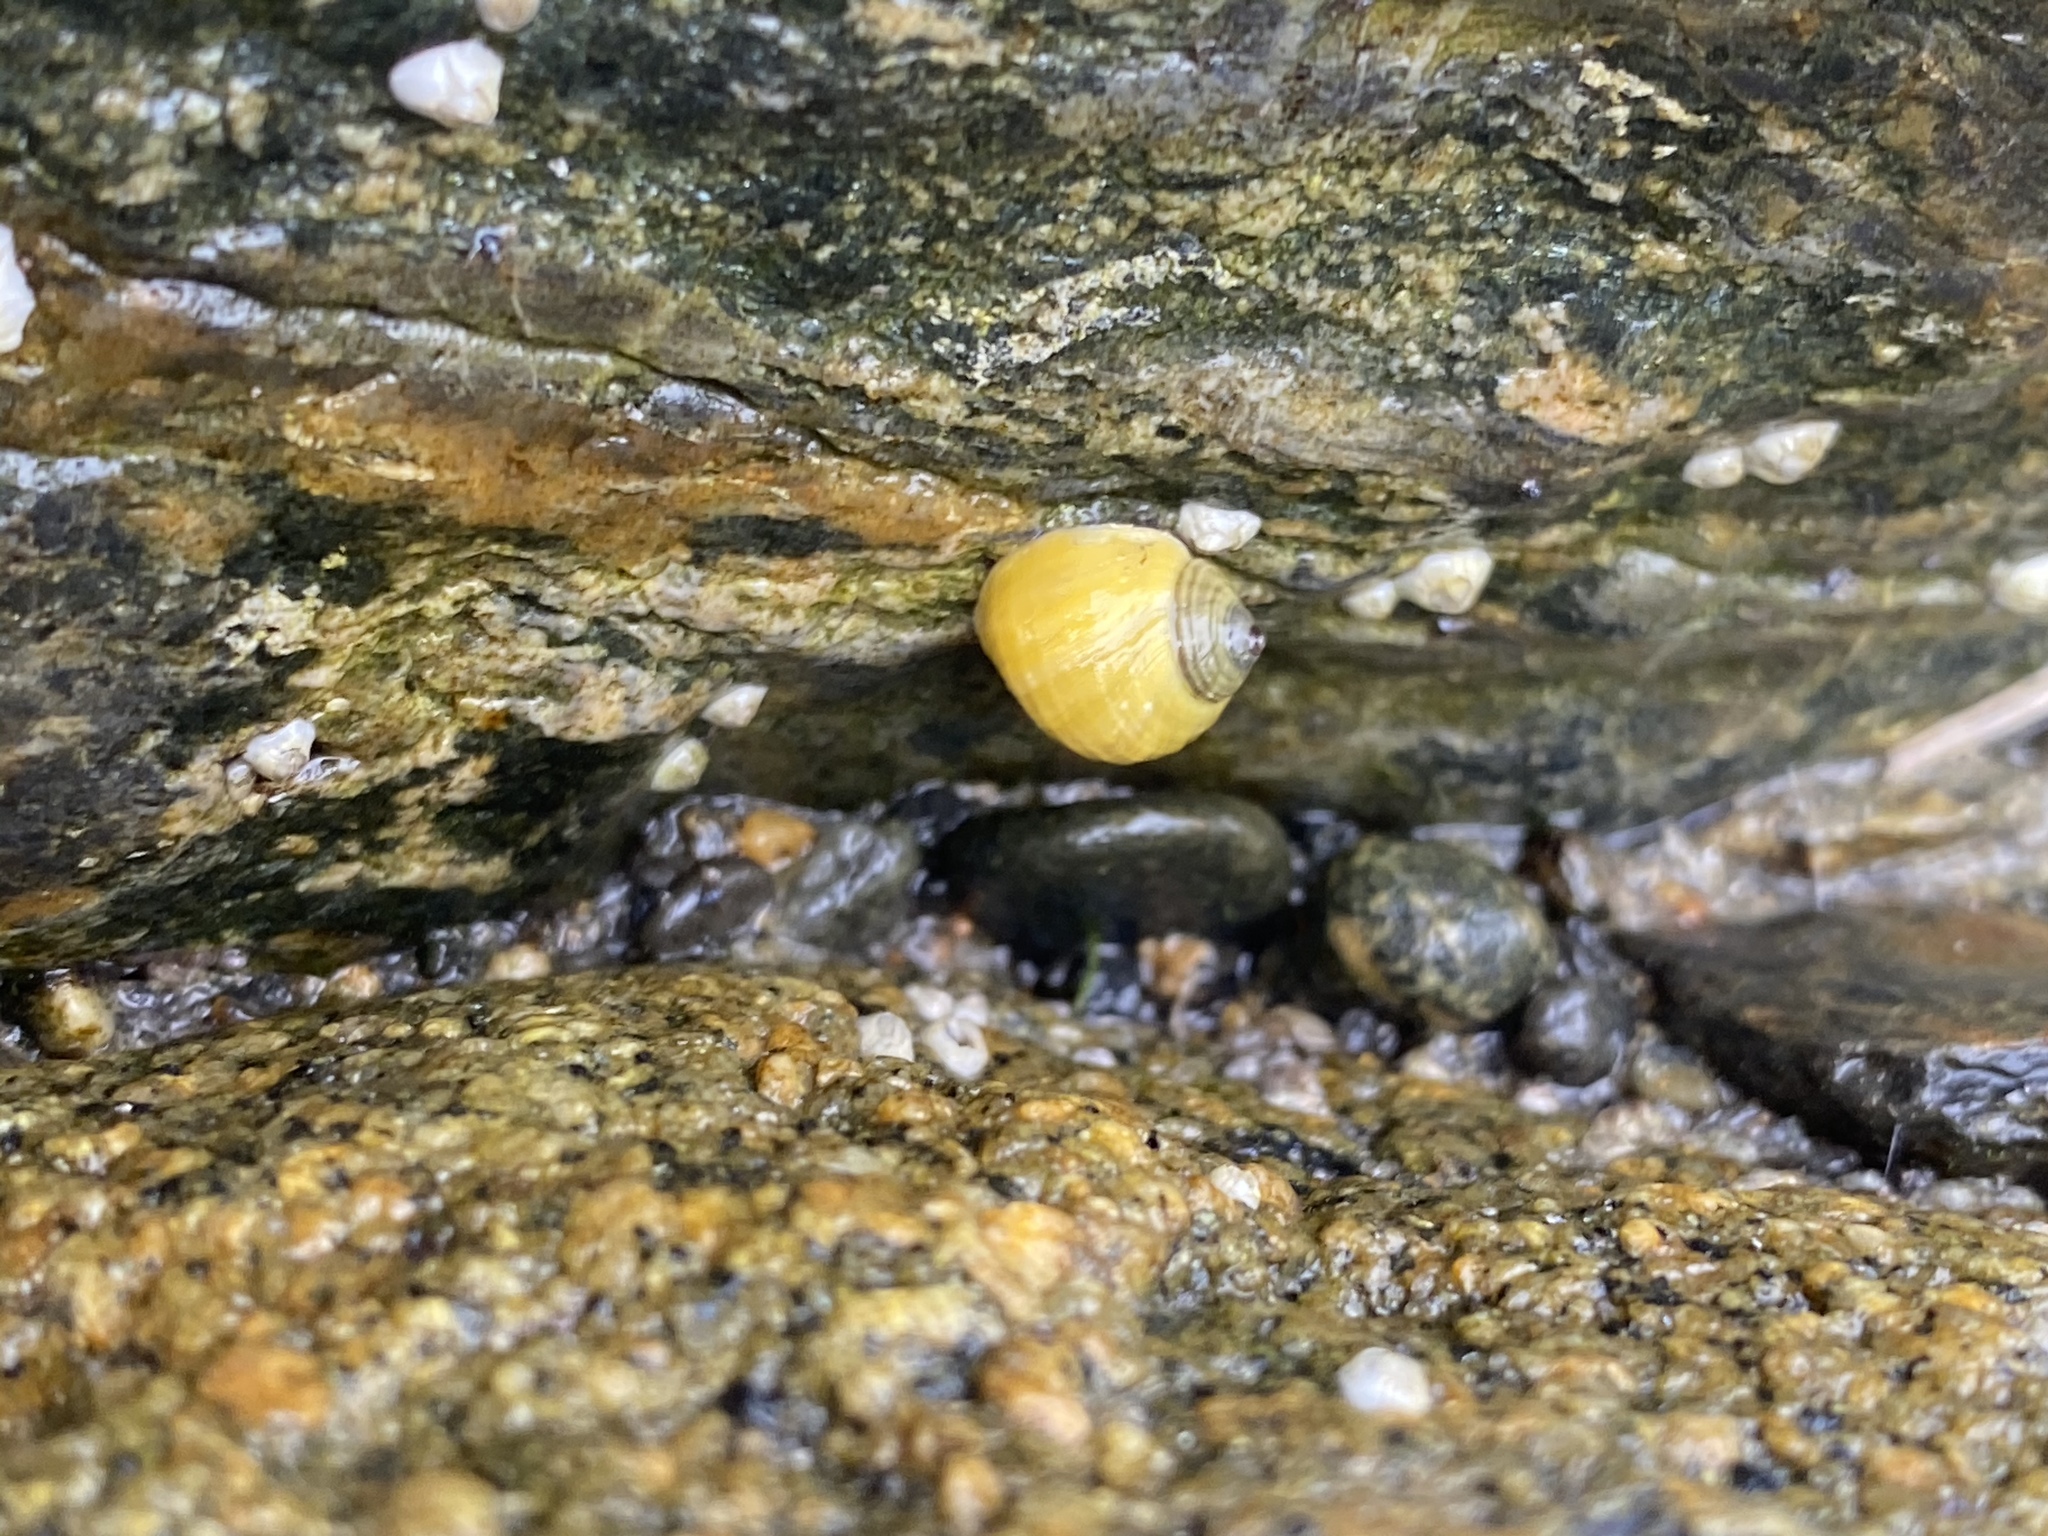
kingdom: Animalia
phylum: Mollusca
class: Gastropoda
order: Littorinimorpha
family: Littorinidae
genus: Littorina
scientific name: Littorina saxatilis
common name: Black-lined periwinkle
